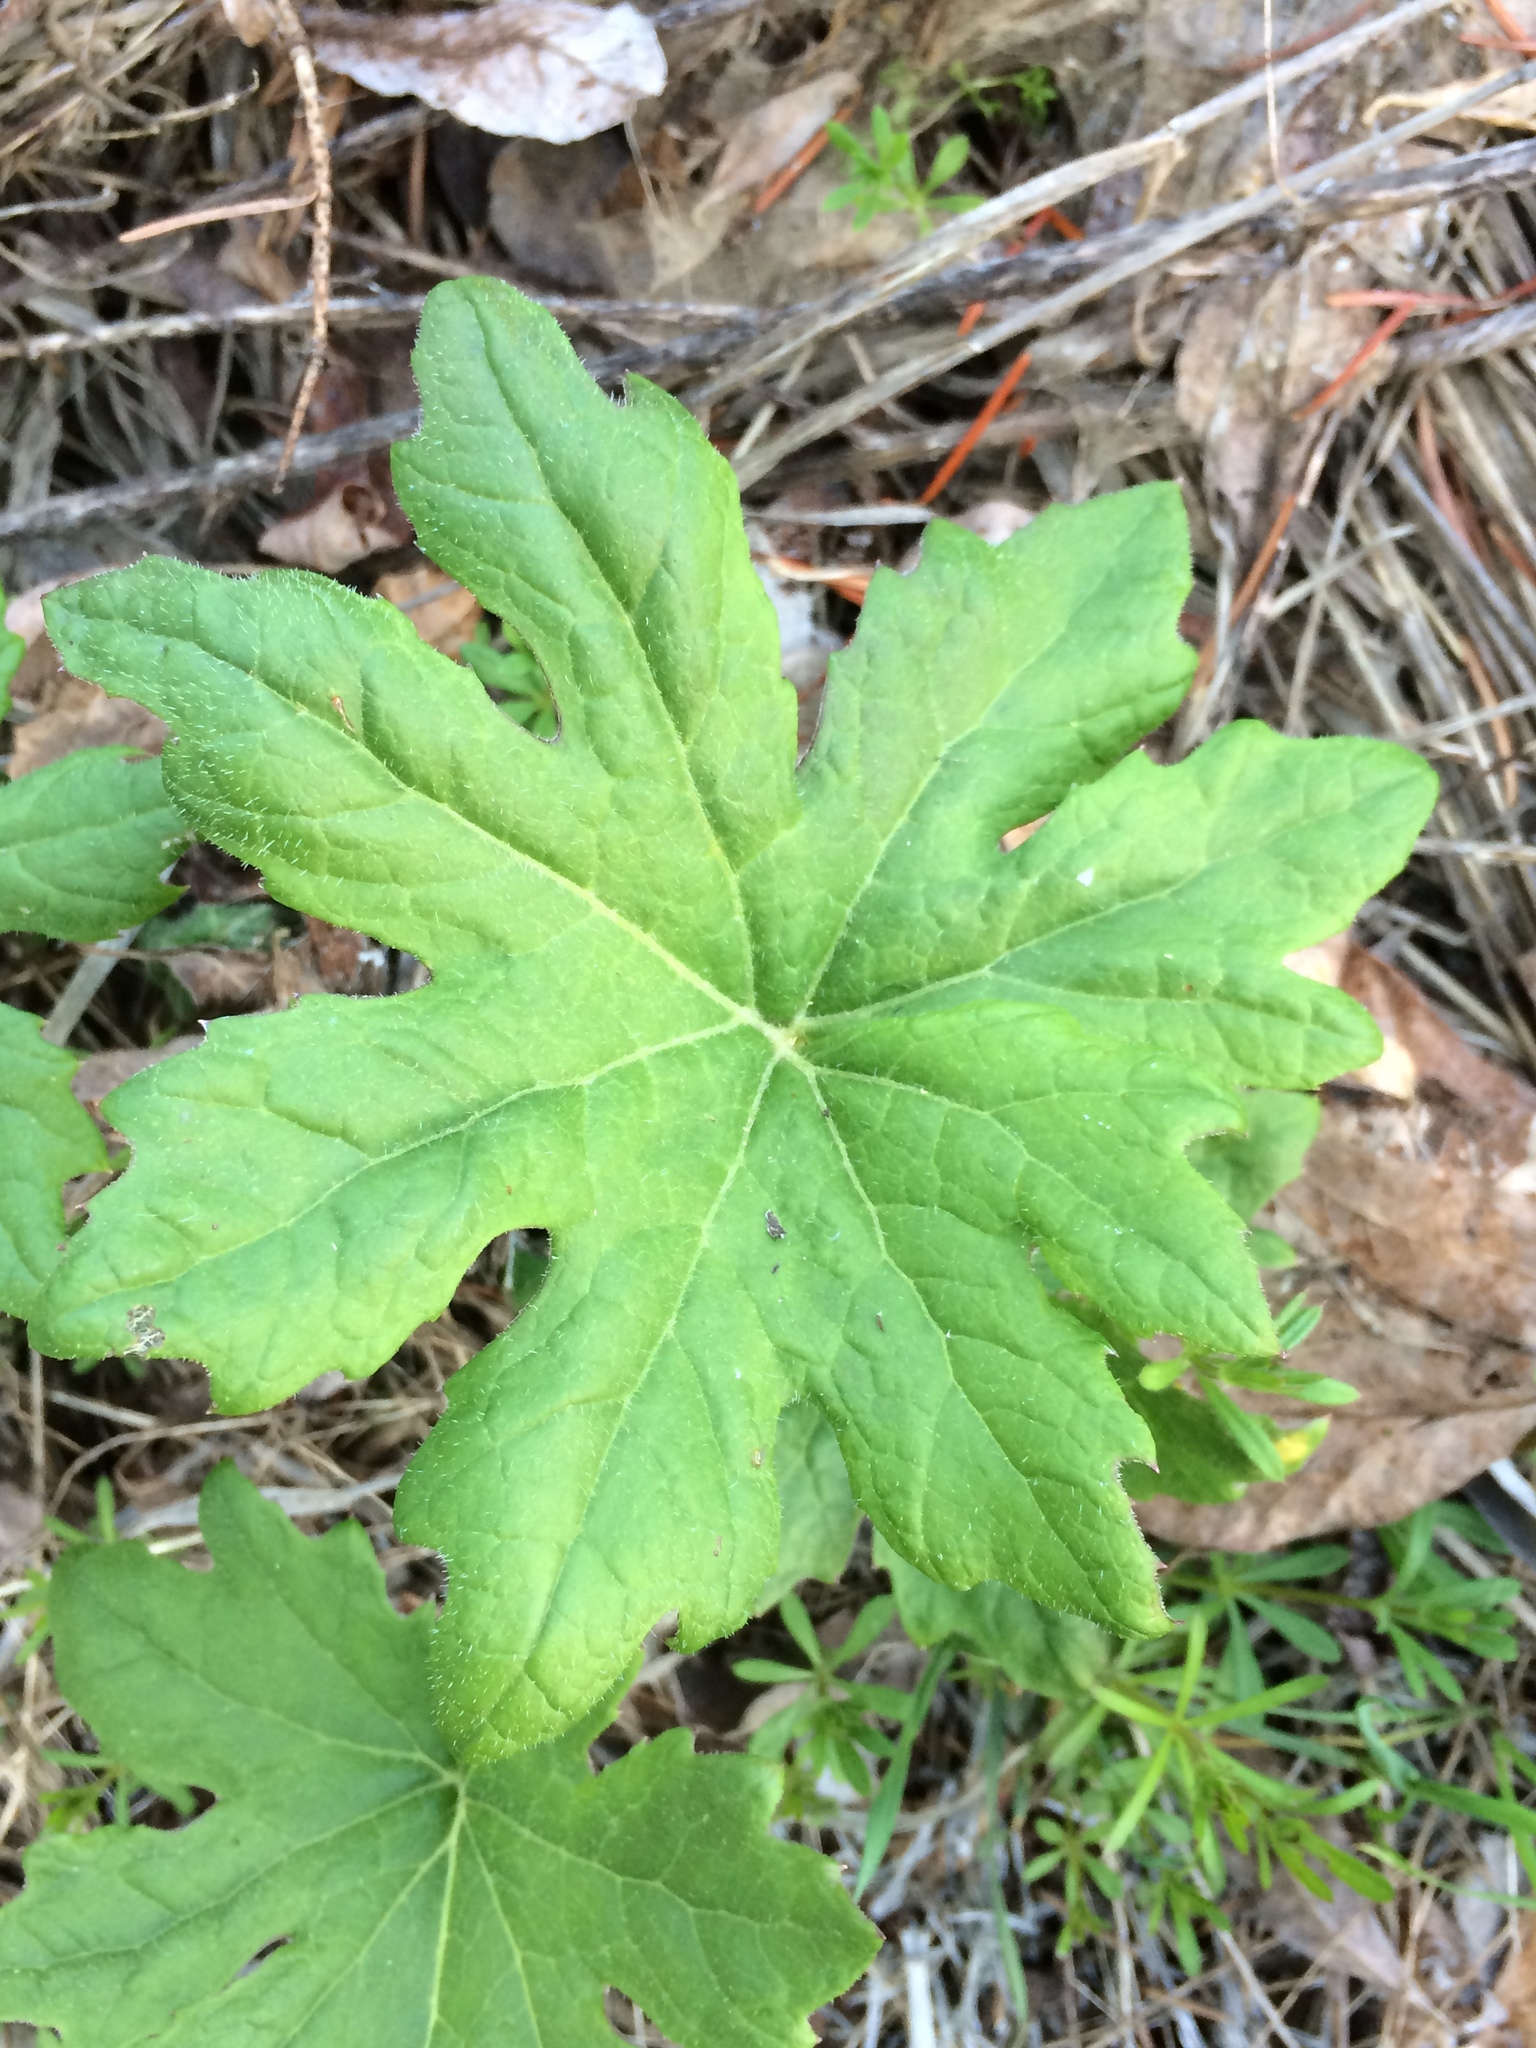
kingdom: Plantae
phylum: Tracheophyta
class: Magnoliopsida
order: Asterales
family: Asteraceae
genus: Petasites
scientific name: Petasites frigidus
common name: Arctic butterbur
